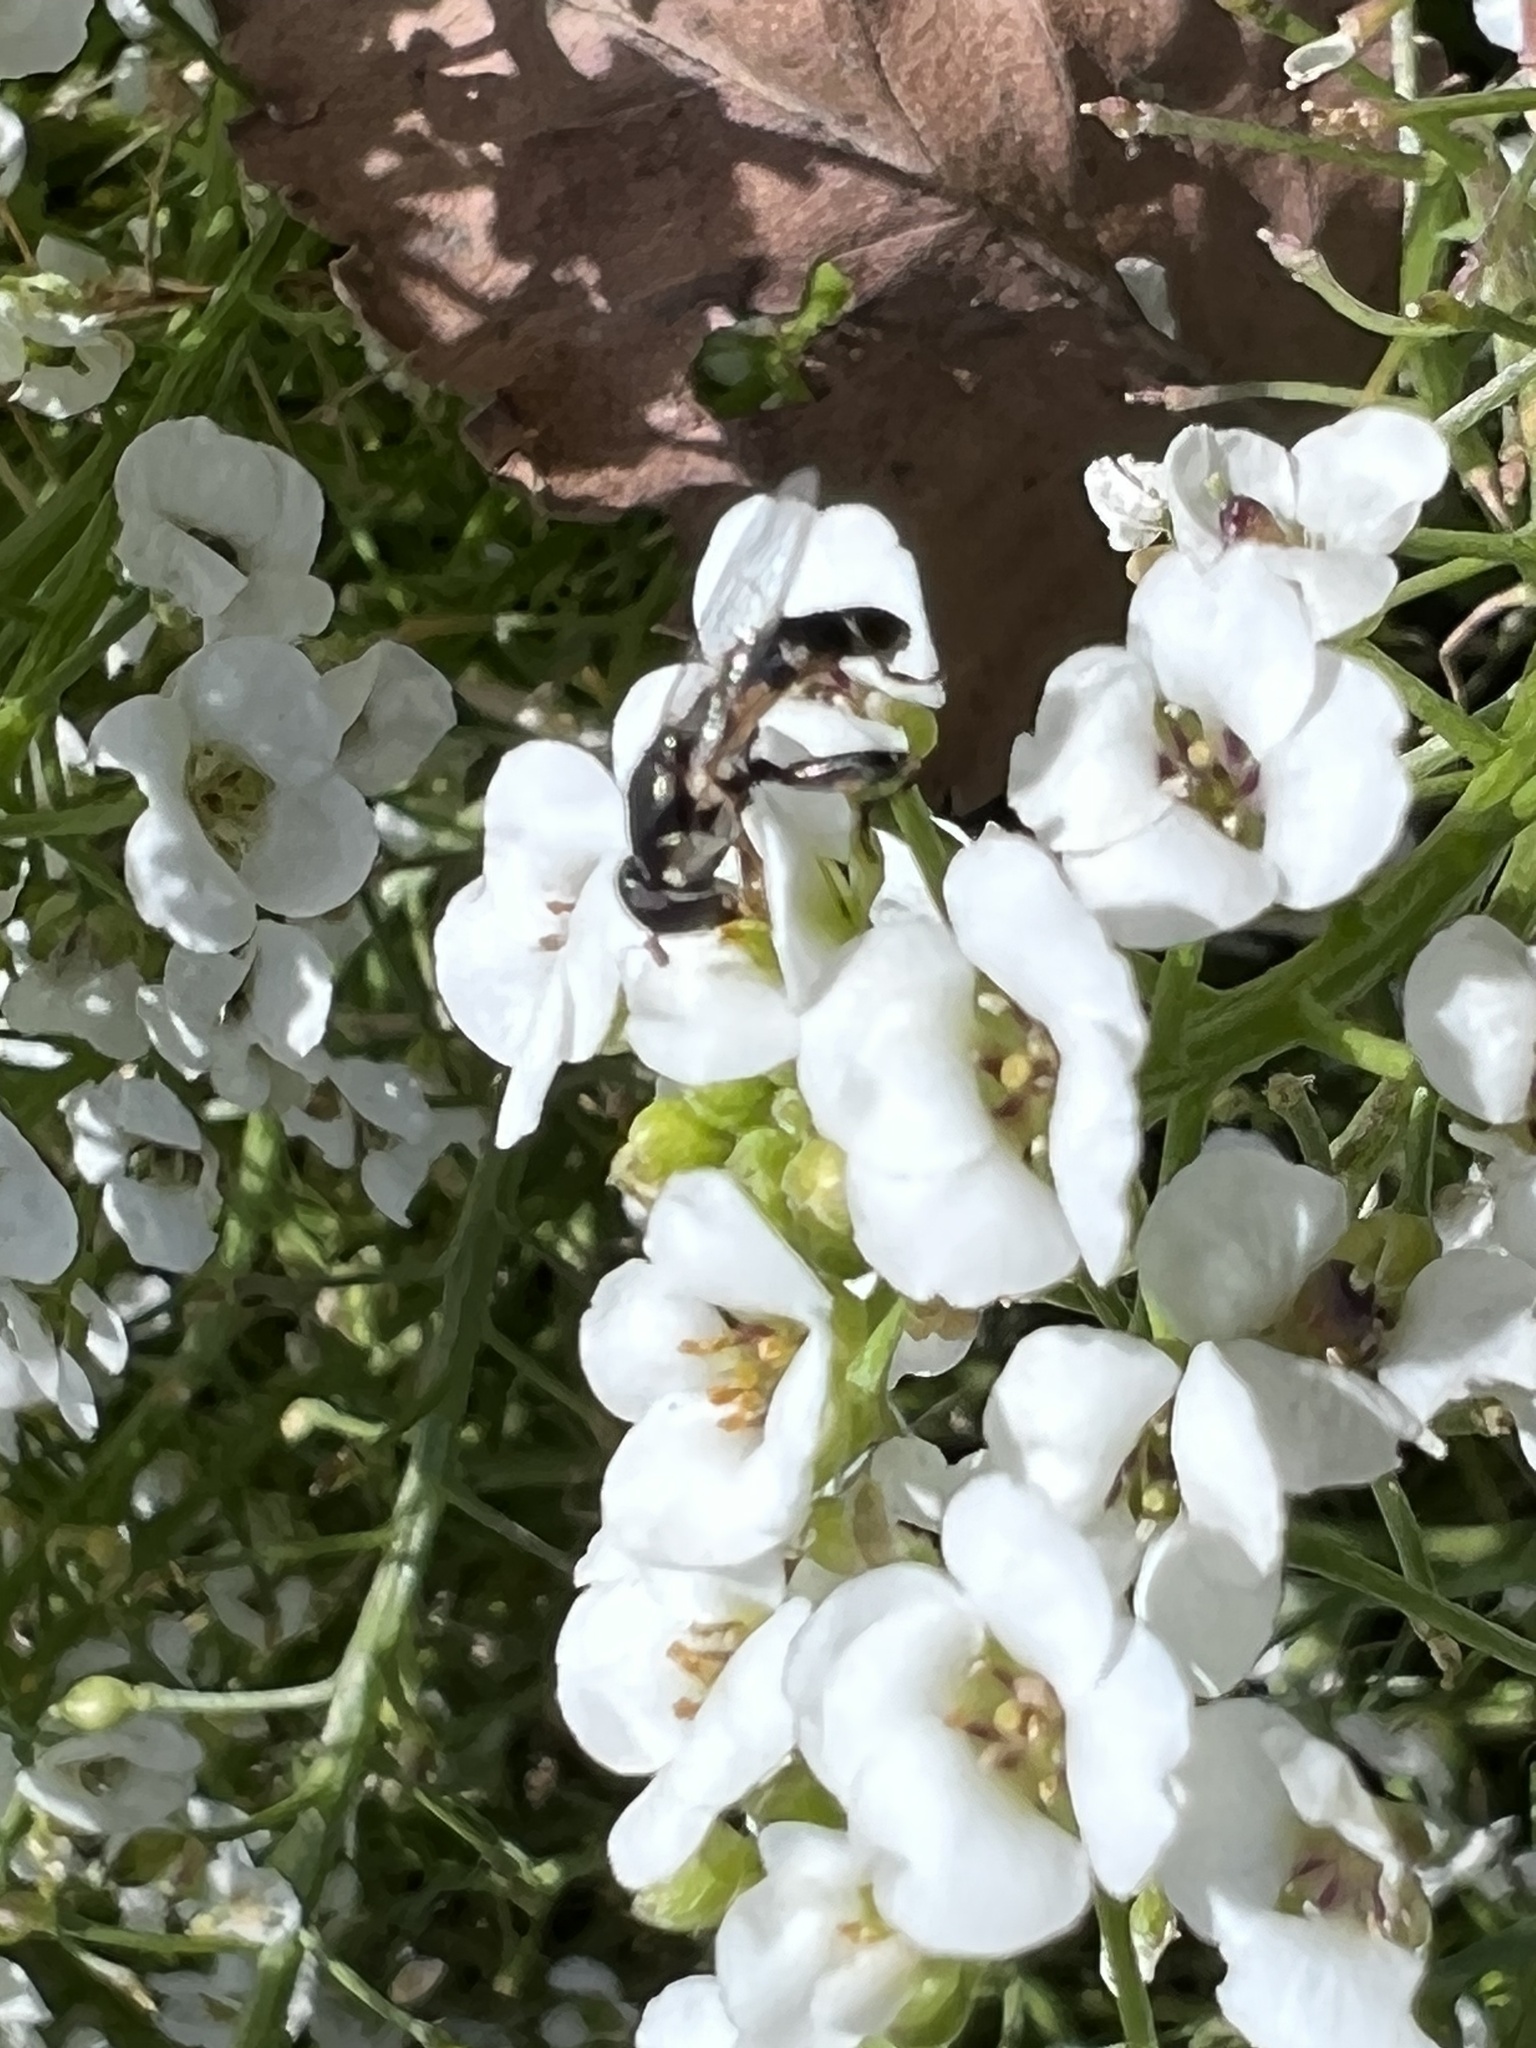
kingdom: Animalia
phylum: Arthropoda
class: Insecta
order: Diptera
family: Syrphidae
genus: Syritta
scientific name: Syritta pipiens
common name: Hover fly
